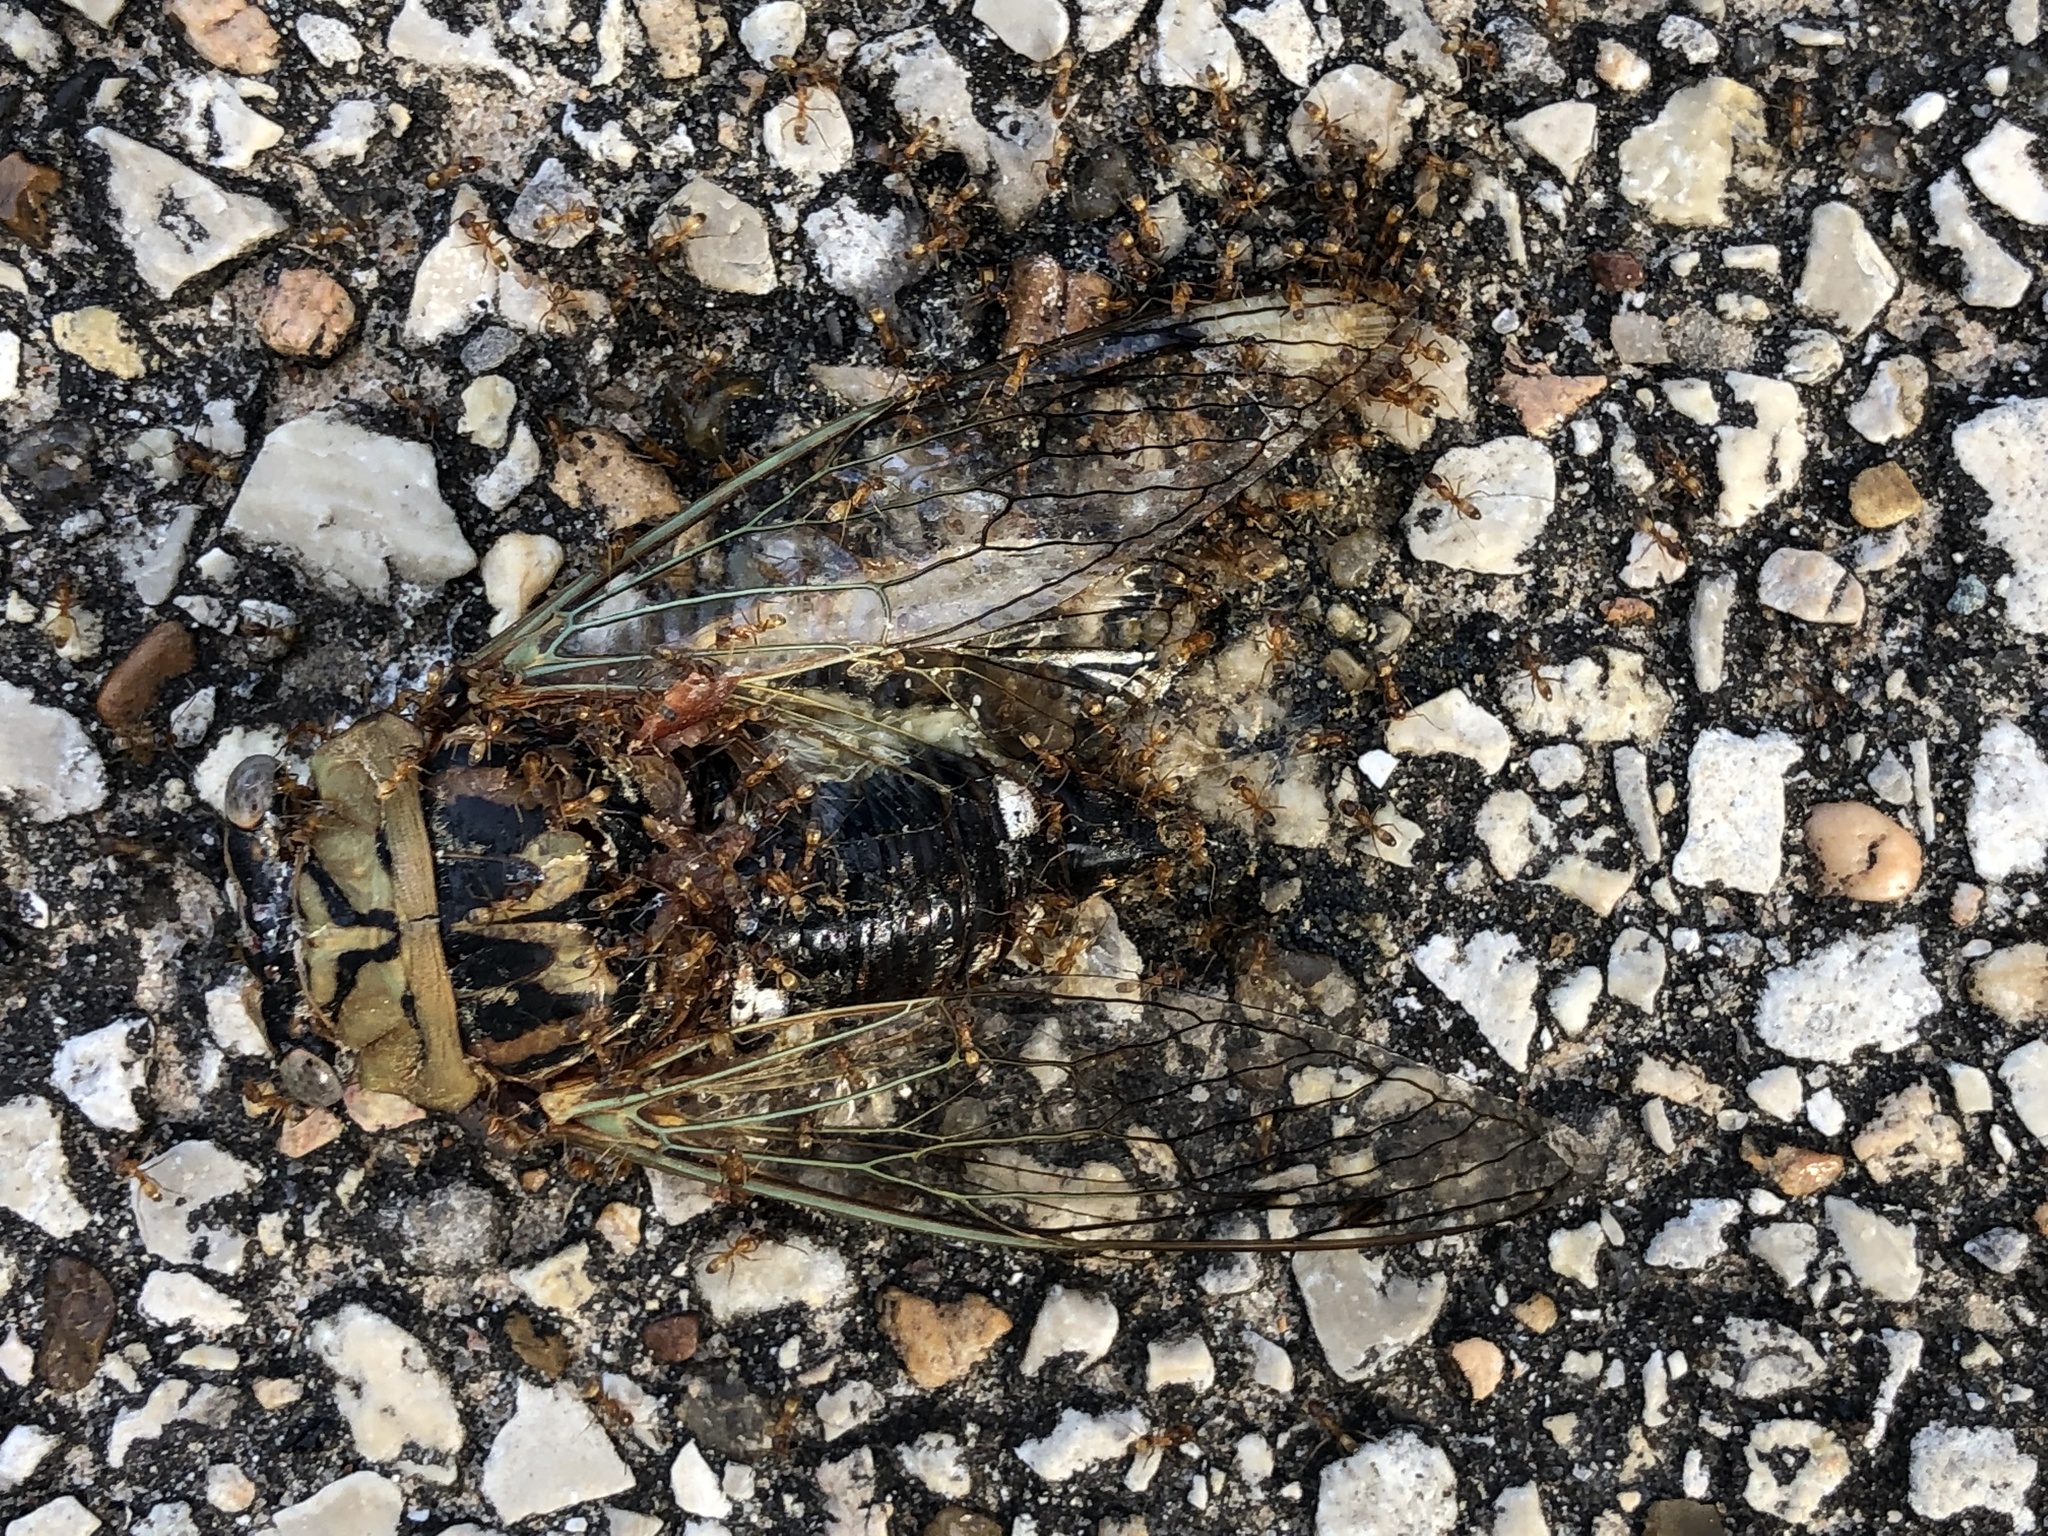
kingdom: Animalia
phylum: Arthropoda
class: Insecta
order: Hemiptera
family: Cicadidae
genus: Megatibicen
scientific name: Megatibicen resh
